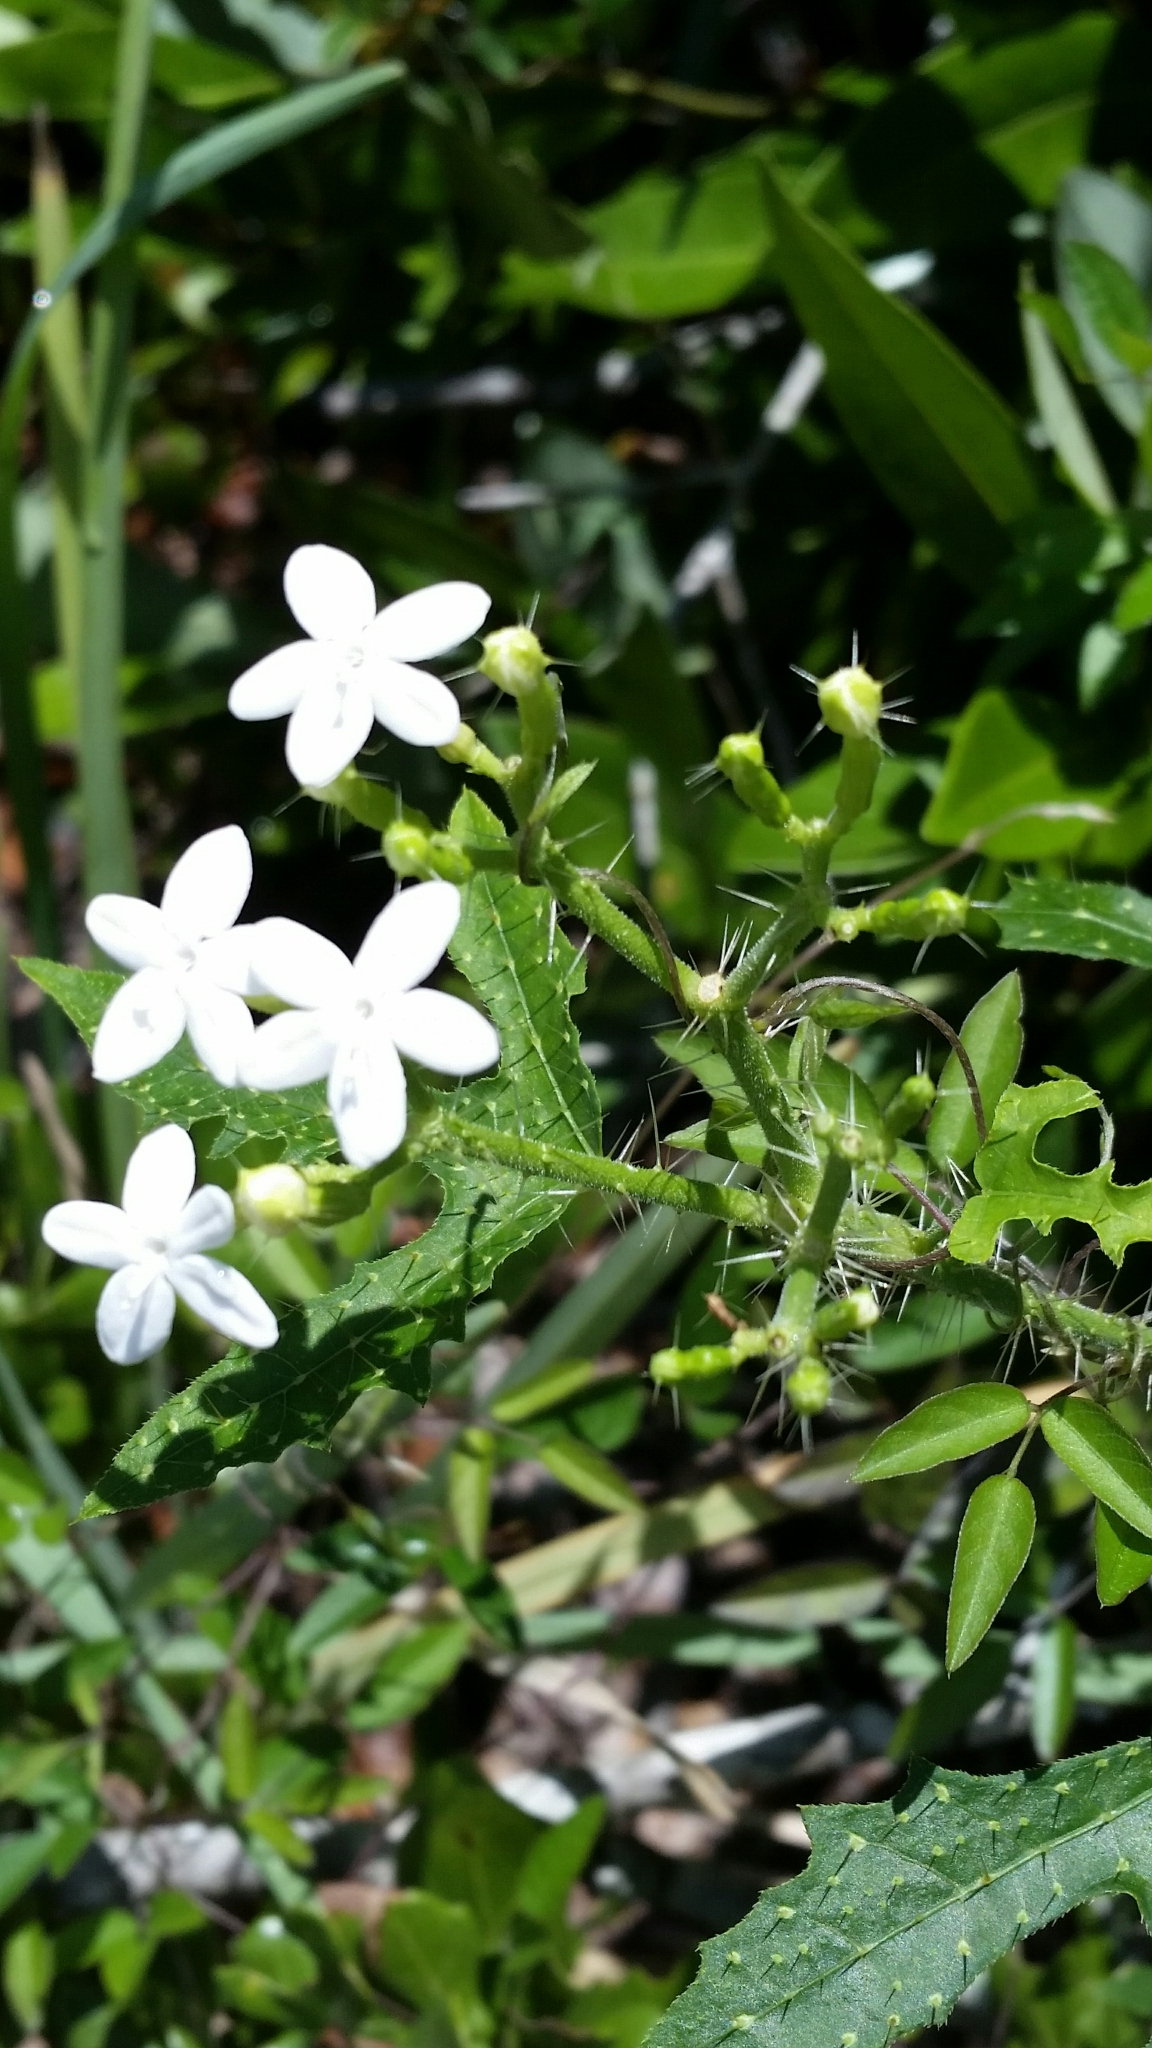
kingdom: Plantae
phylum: Tracheophyta
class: Magnoliopsida
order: Malpighiales
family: Euphorbiaceae
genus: Cnidoscolus
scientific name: Cnidoscolus stimulosus
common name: Bull-nettle
